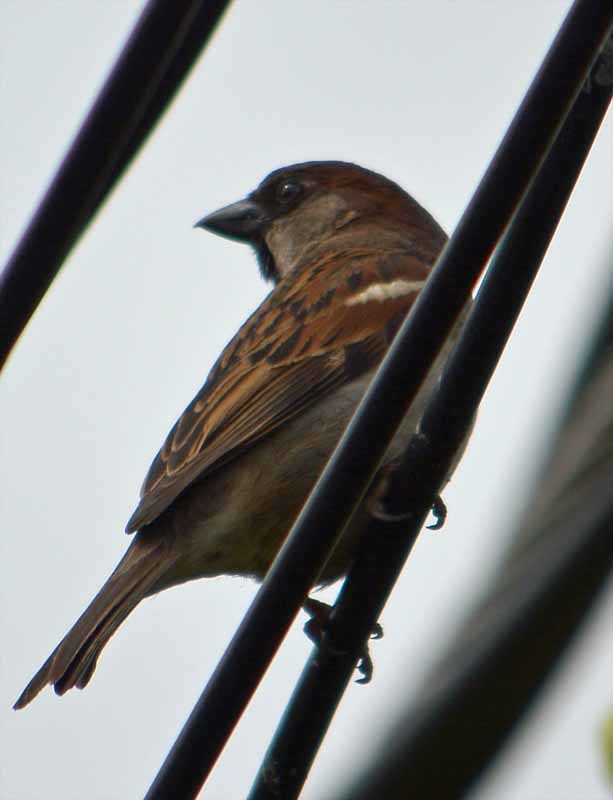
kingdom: Animalia
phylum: Chordata
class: Aves
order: Passeriformes
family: Passeridae
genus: Passer
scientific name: Passer domesticus
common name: House sparrow
